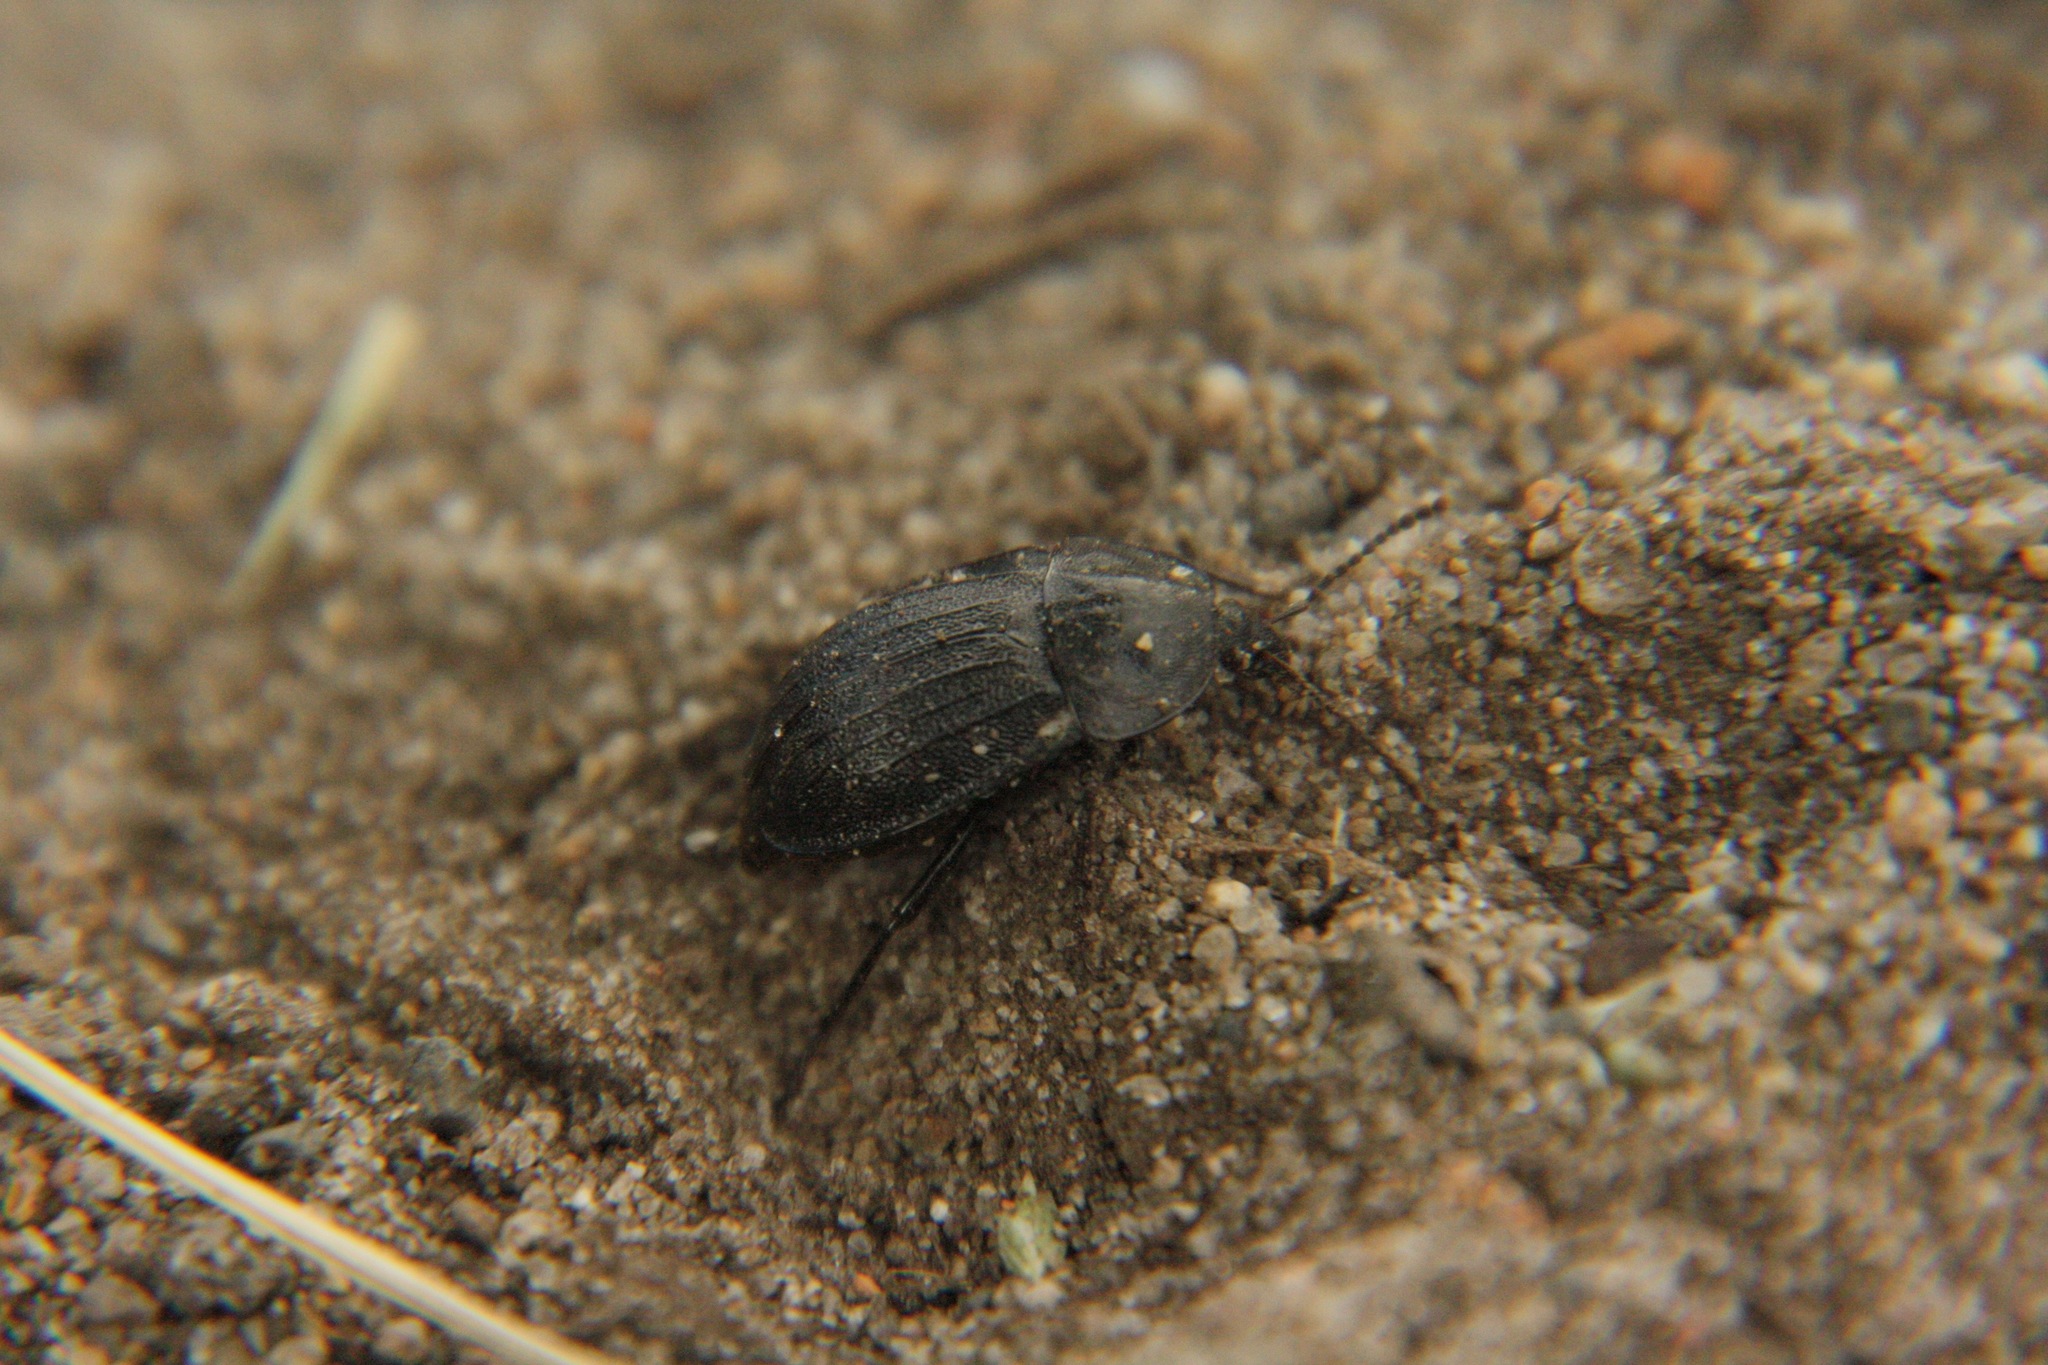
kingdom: Animalia
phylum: Arthropoda
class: Insecta
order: Coleoptera
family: Staphylinidae
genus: Silpha
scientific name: Silpha atrata
